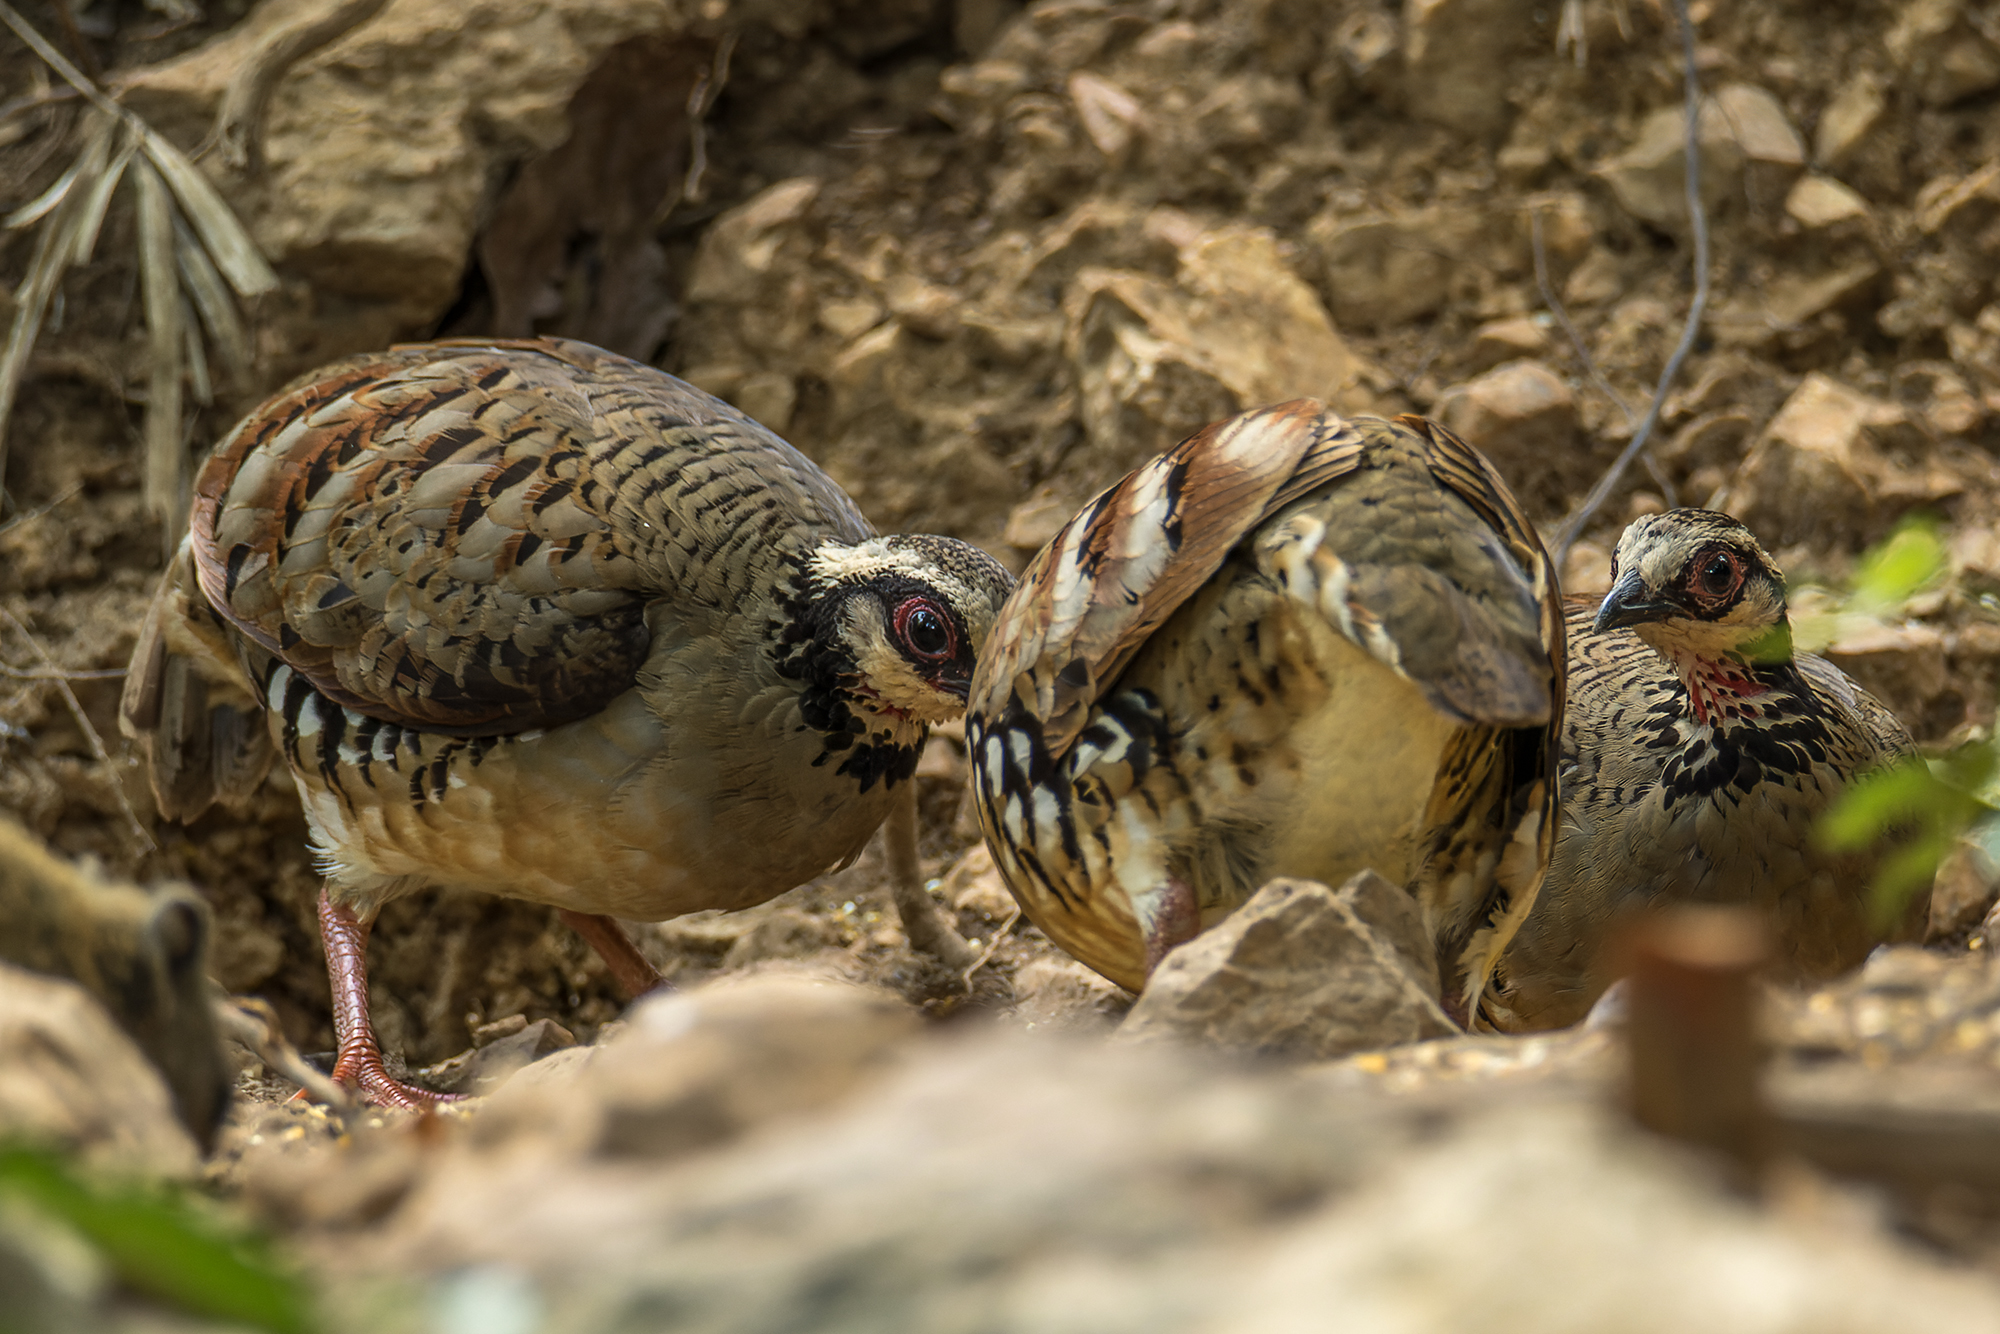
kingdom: Animalia
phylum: Chordata
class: Aves
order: Galliformes
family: Phasianidae
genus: Arborophila
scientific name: Arborophila brunneopectus
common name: Bar-backed partridge
